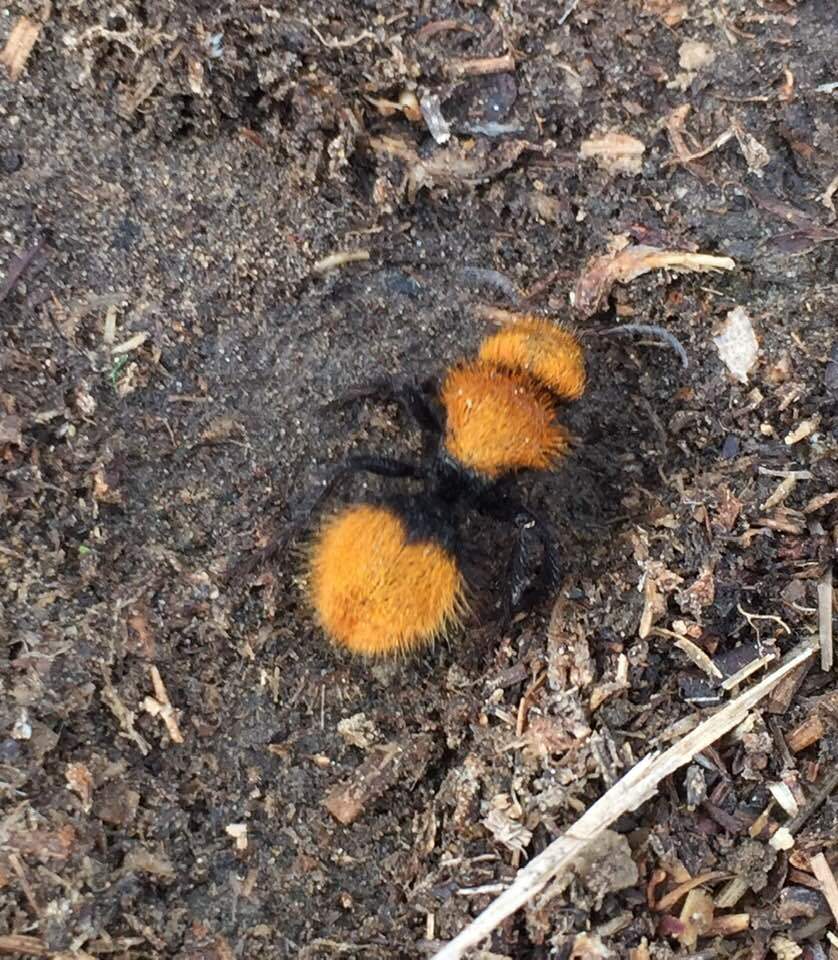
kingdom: Animalia
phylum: Arthropoda
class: Insecta
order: Hymenoptera
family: Mutillidae
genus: Dasymutilla
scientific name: Dasymutilla
